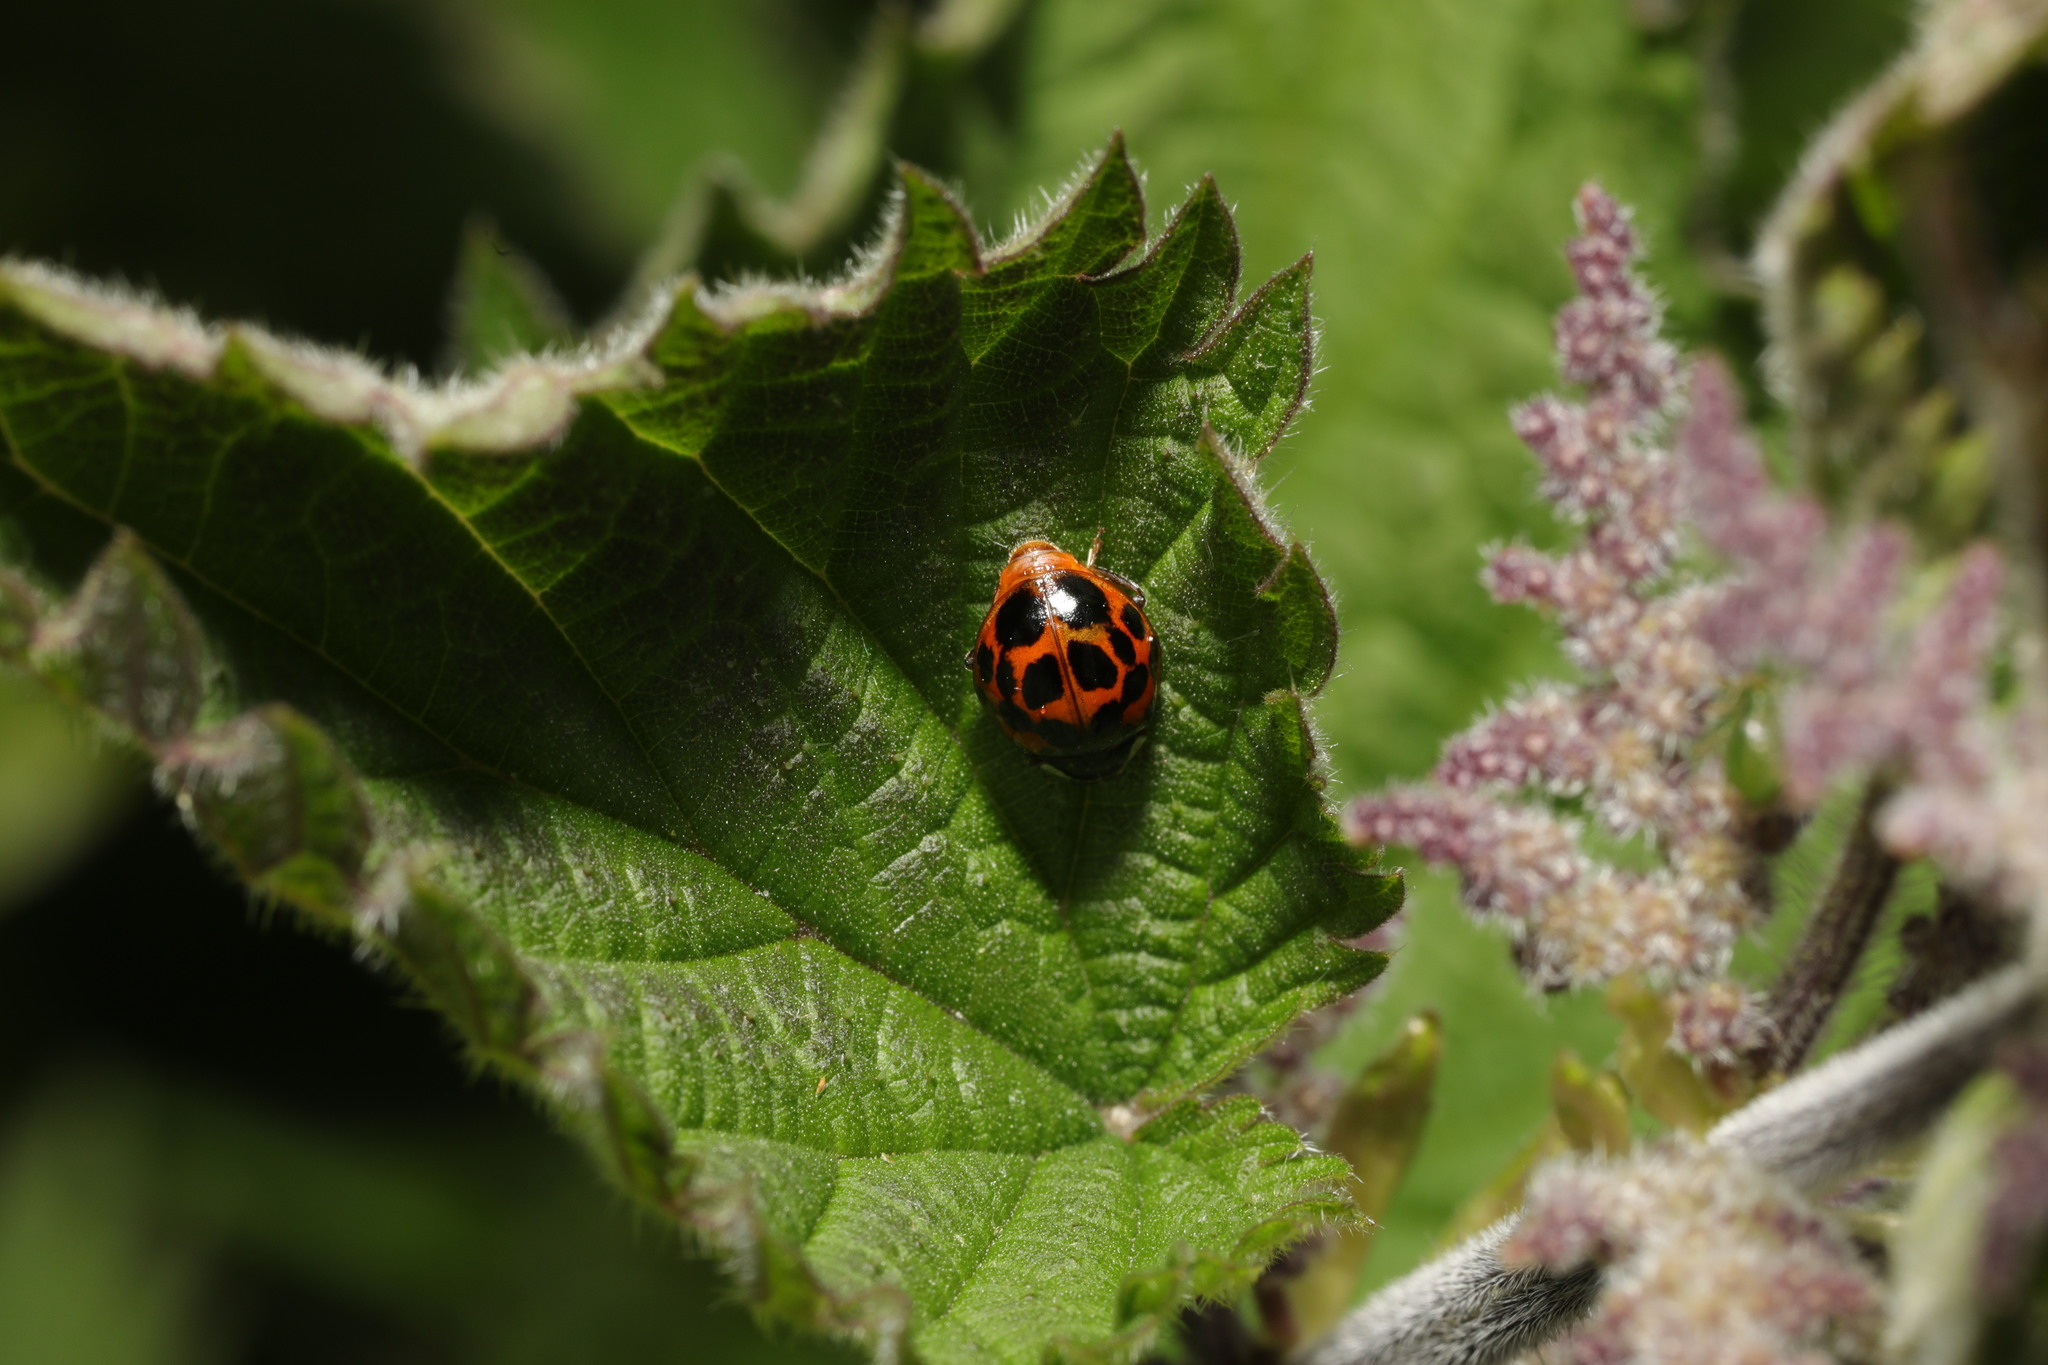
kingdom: Animalia
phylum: Arthropoda
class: Insecta
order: Coleoptera
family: Coccinellidae
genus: Harmonia
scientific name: Harmonia axyridis
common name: Harlequin ladybird
